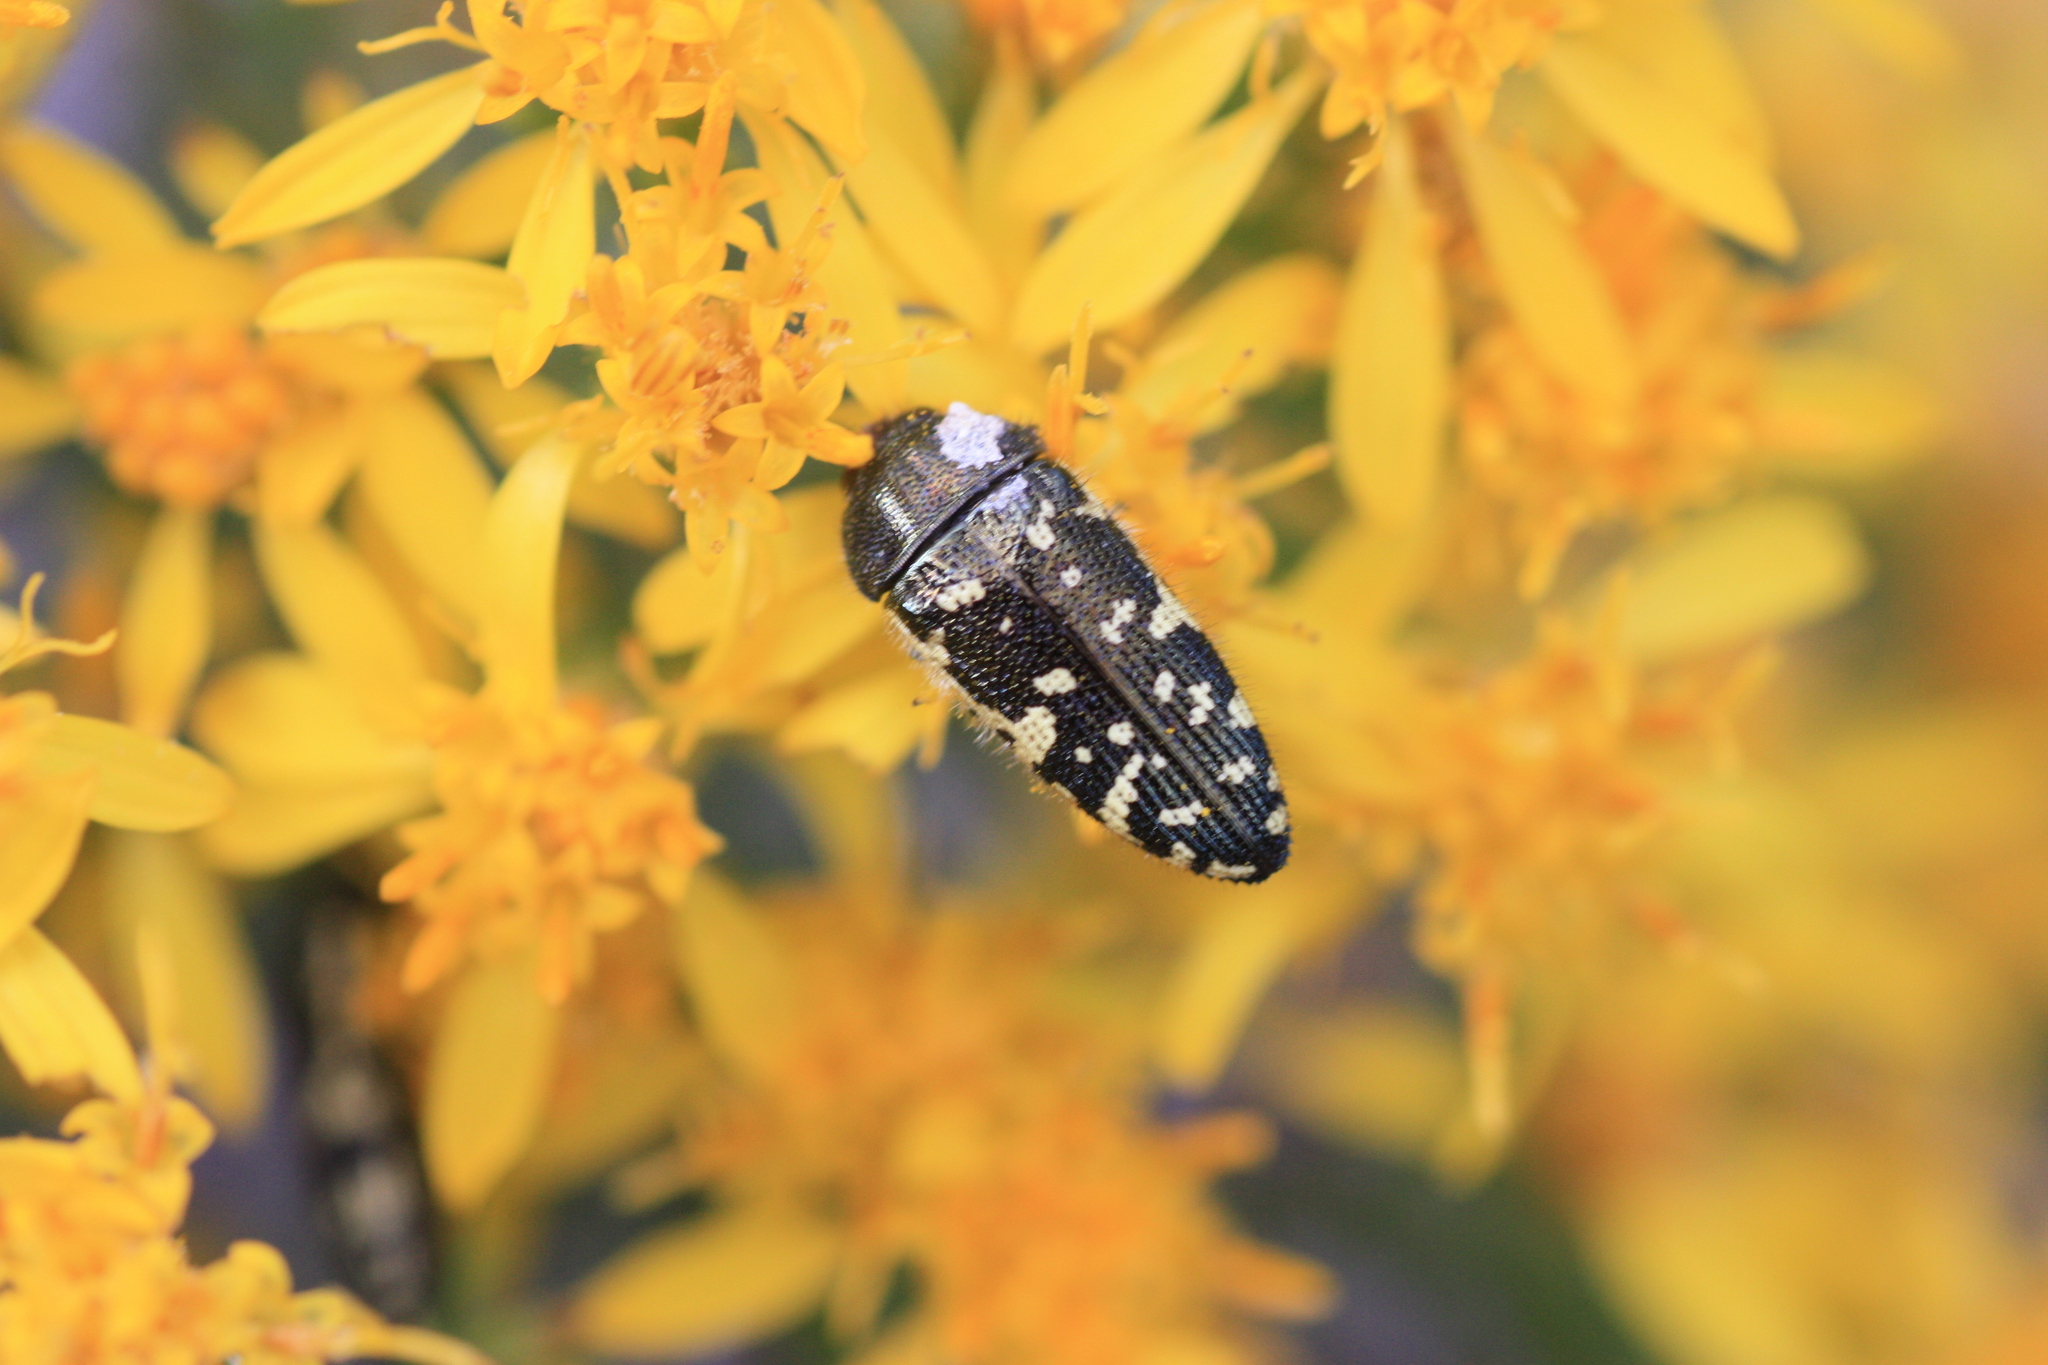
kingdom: Animalia
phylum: Arthropoda
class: Insecta
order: Coleoptera
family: Buprestidae
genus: Acmaeodera
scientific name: Acmaeodera flavopicta
